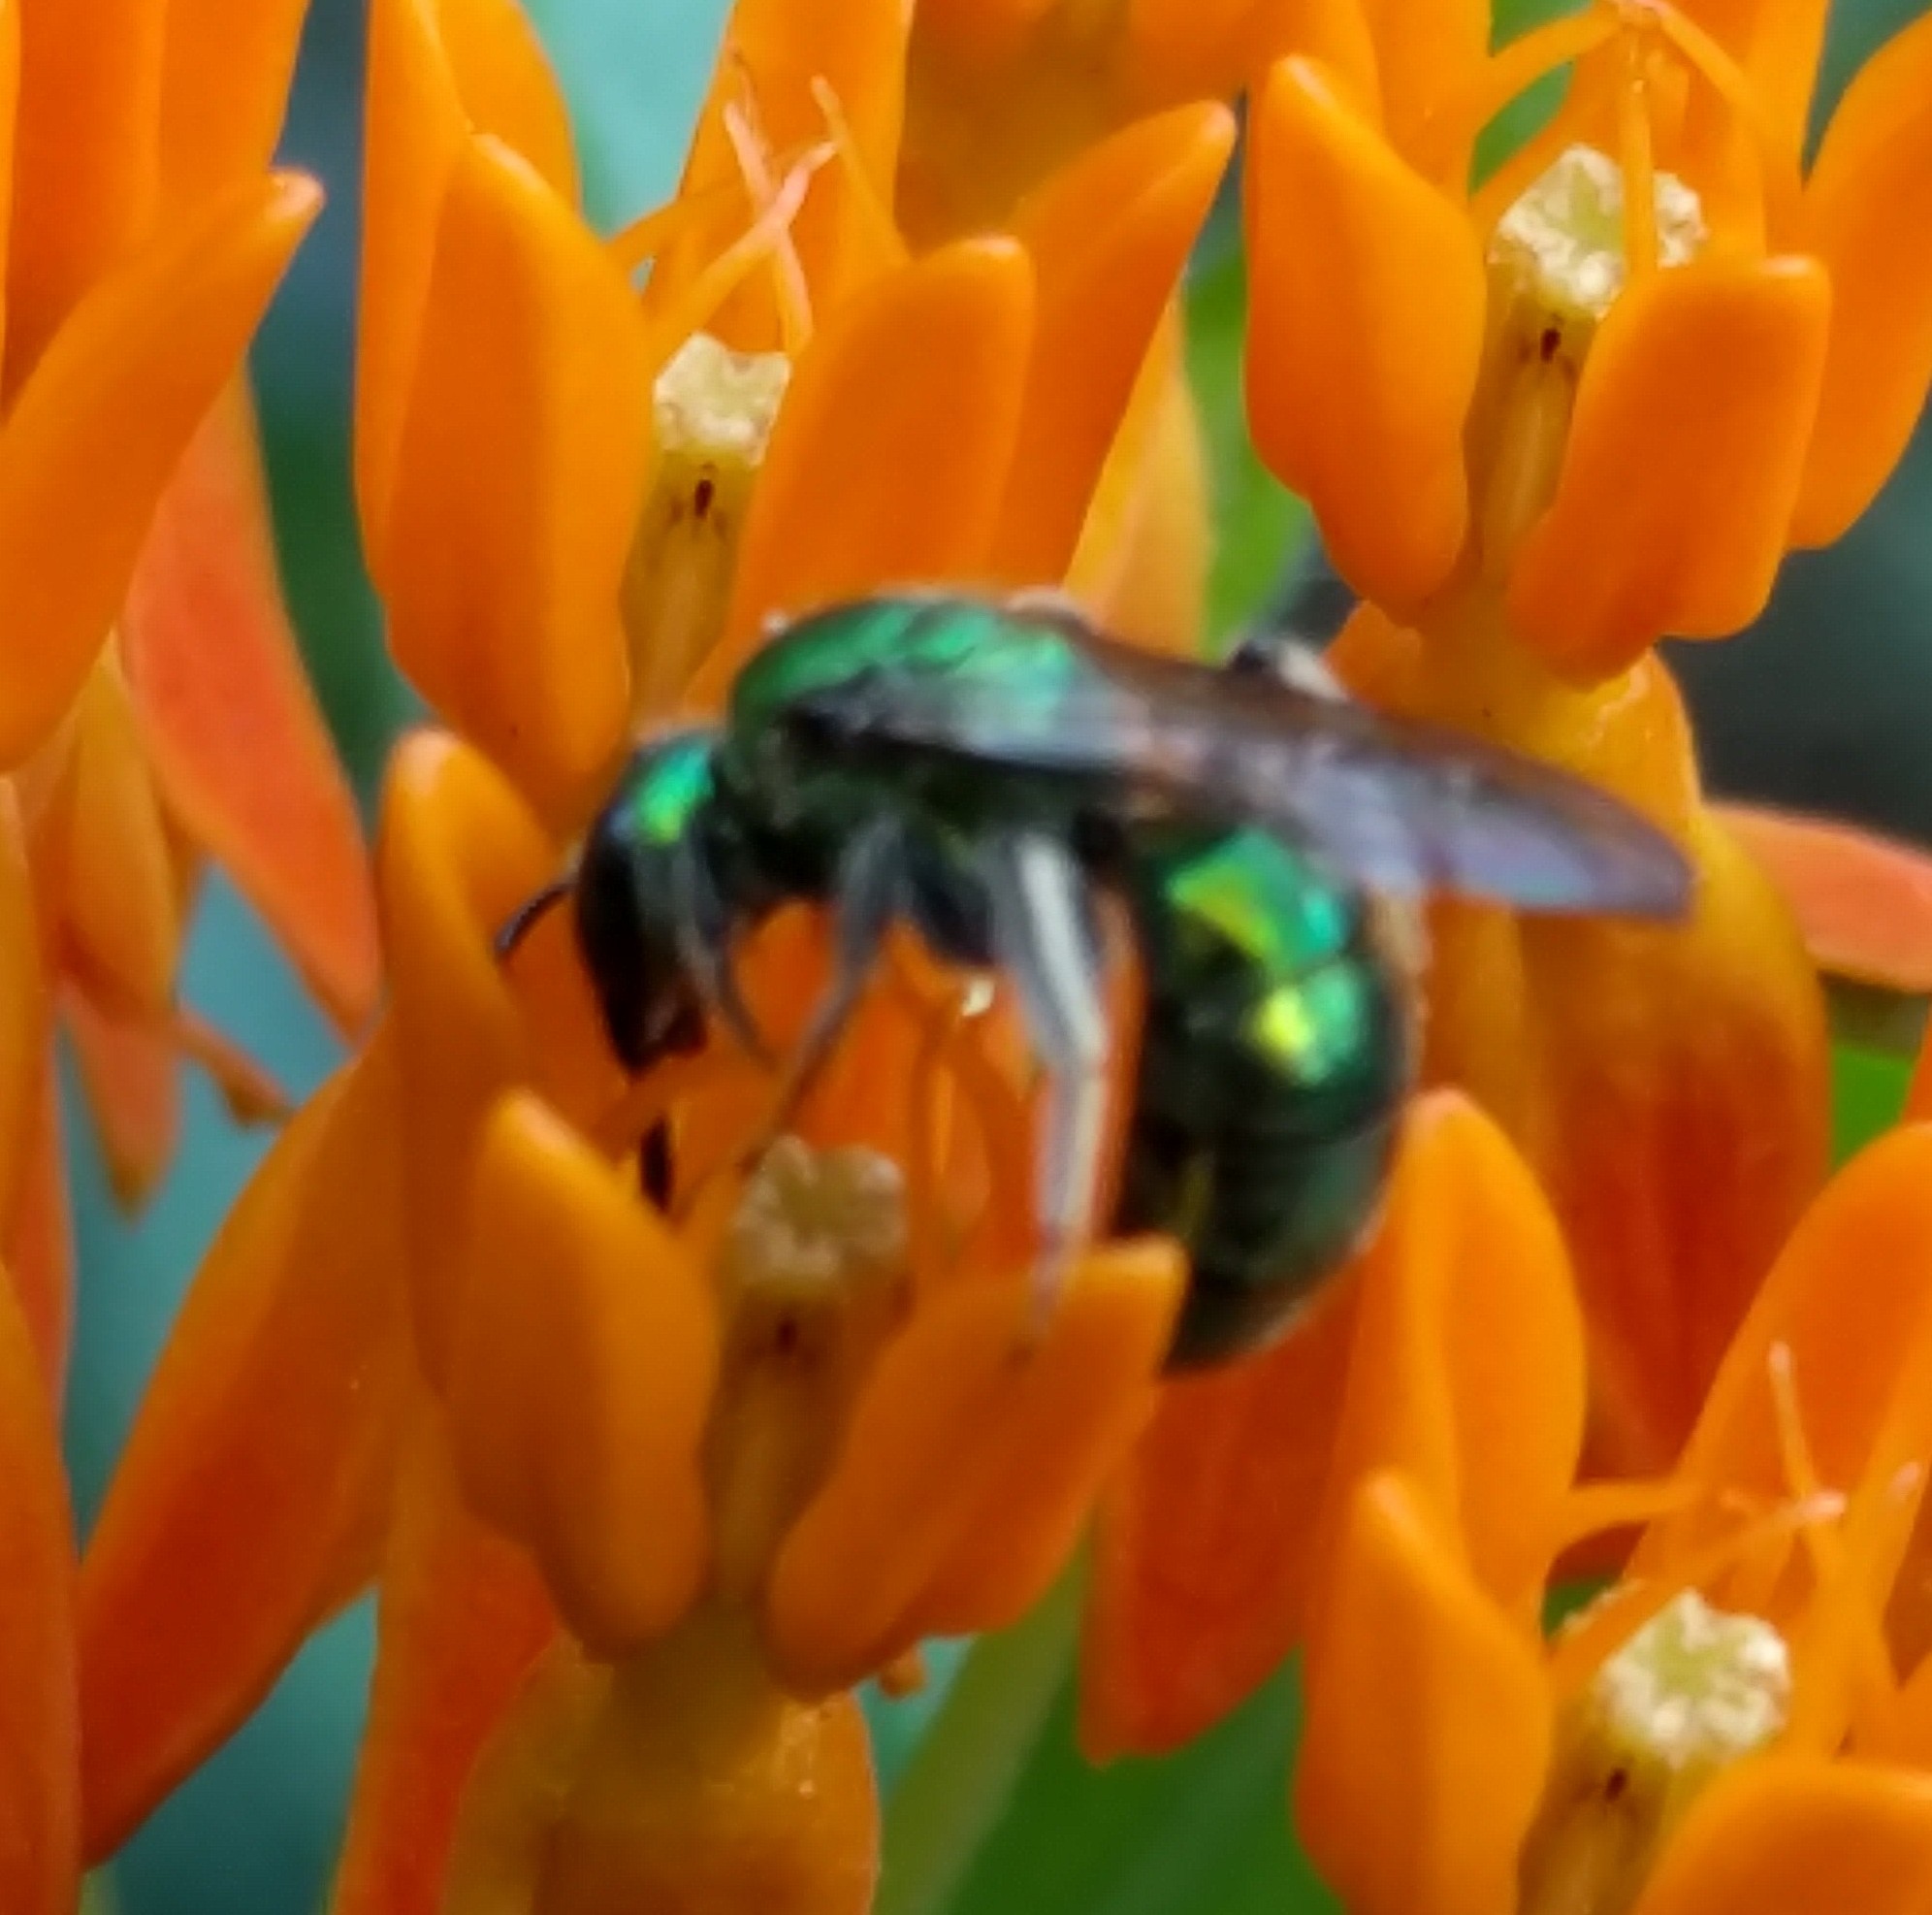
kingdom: Animalia
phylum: Arthropoda
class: Insecta
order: Hymenoptera
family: Halictidae
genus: Augochlora
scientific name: Augochlora pura
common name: Pure green sweat bee
